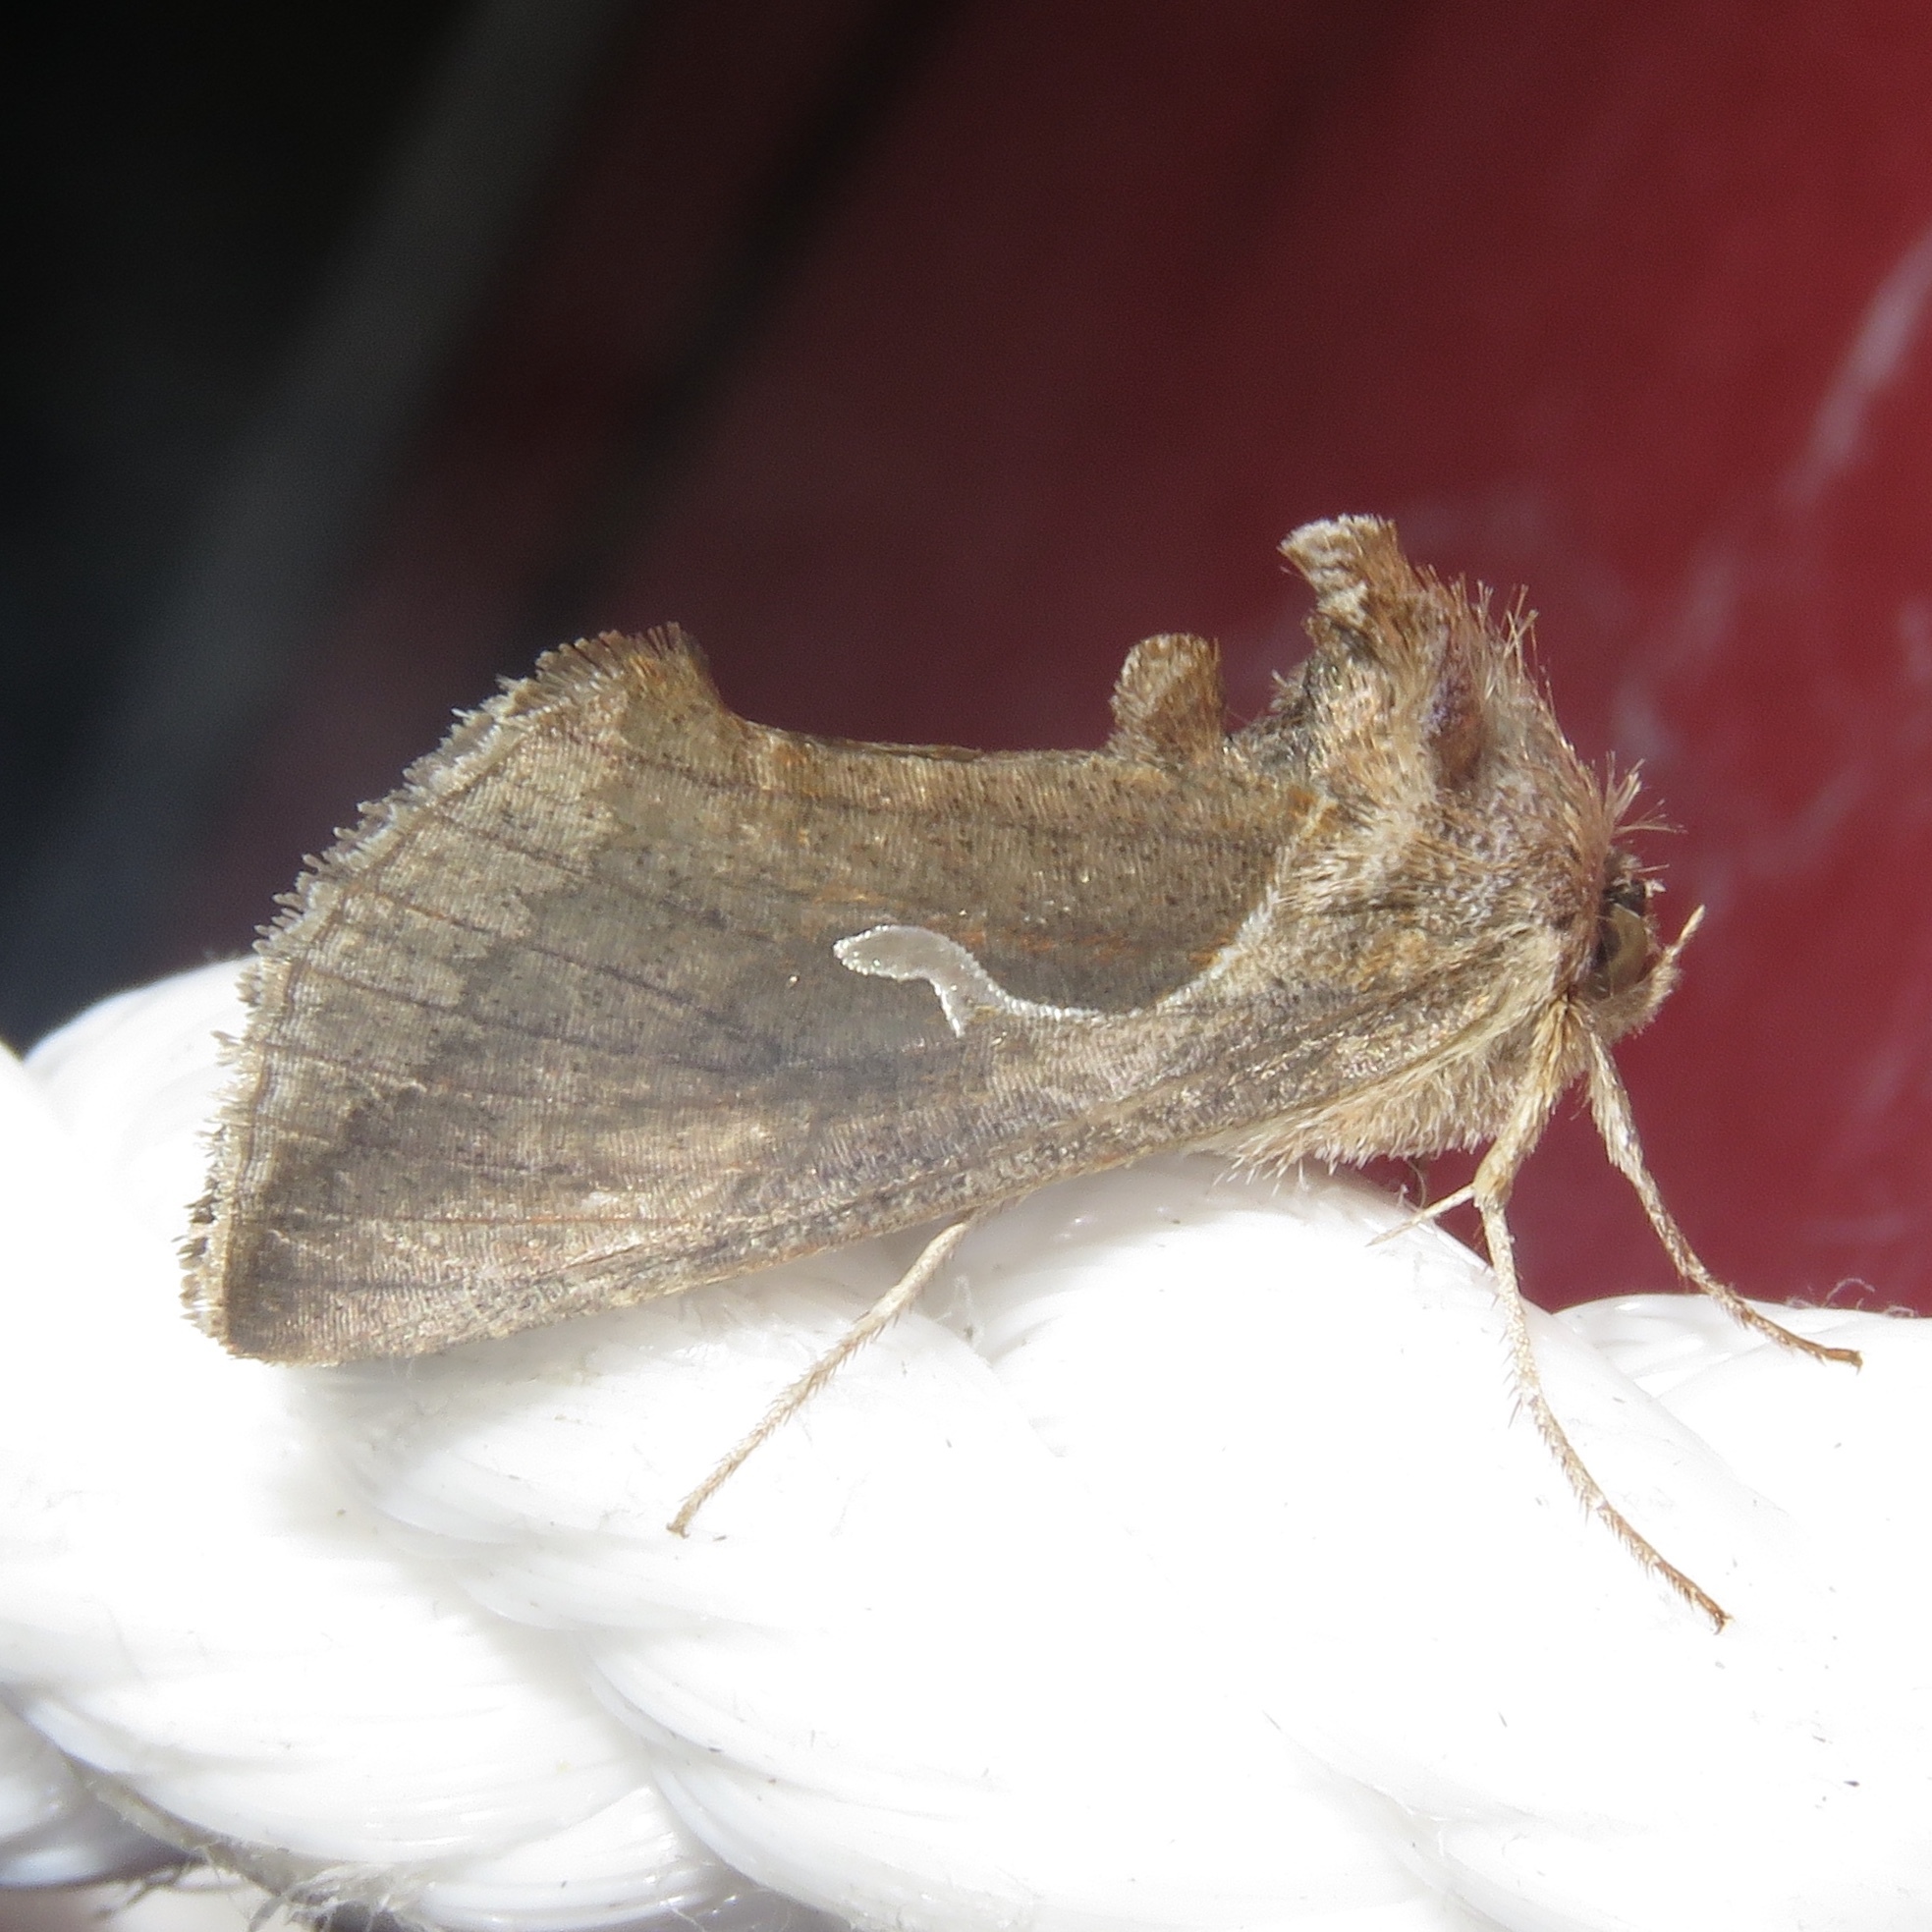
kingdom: Animalia
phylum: Arthropoda
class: Insecta
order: Lepidoptera
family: Noctuidae
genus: Anagrapha
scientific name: Anagrapha falcifera
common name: Celery looper
